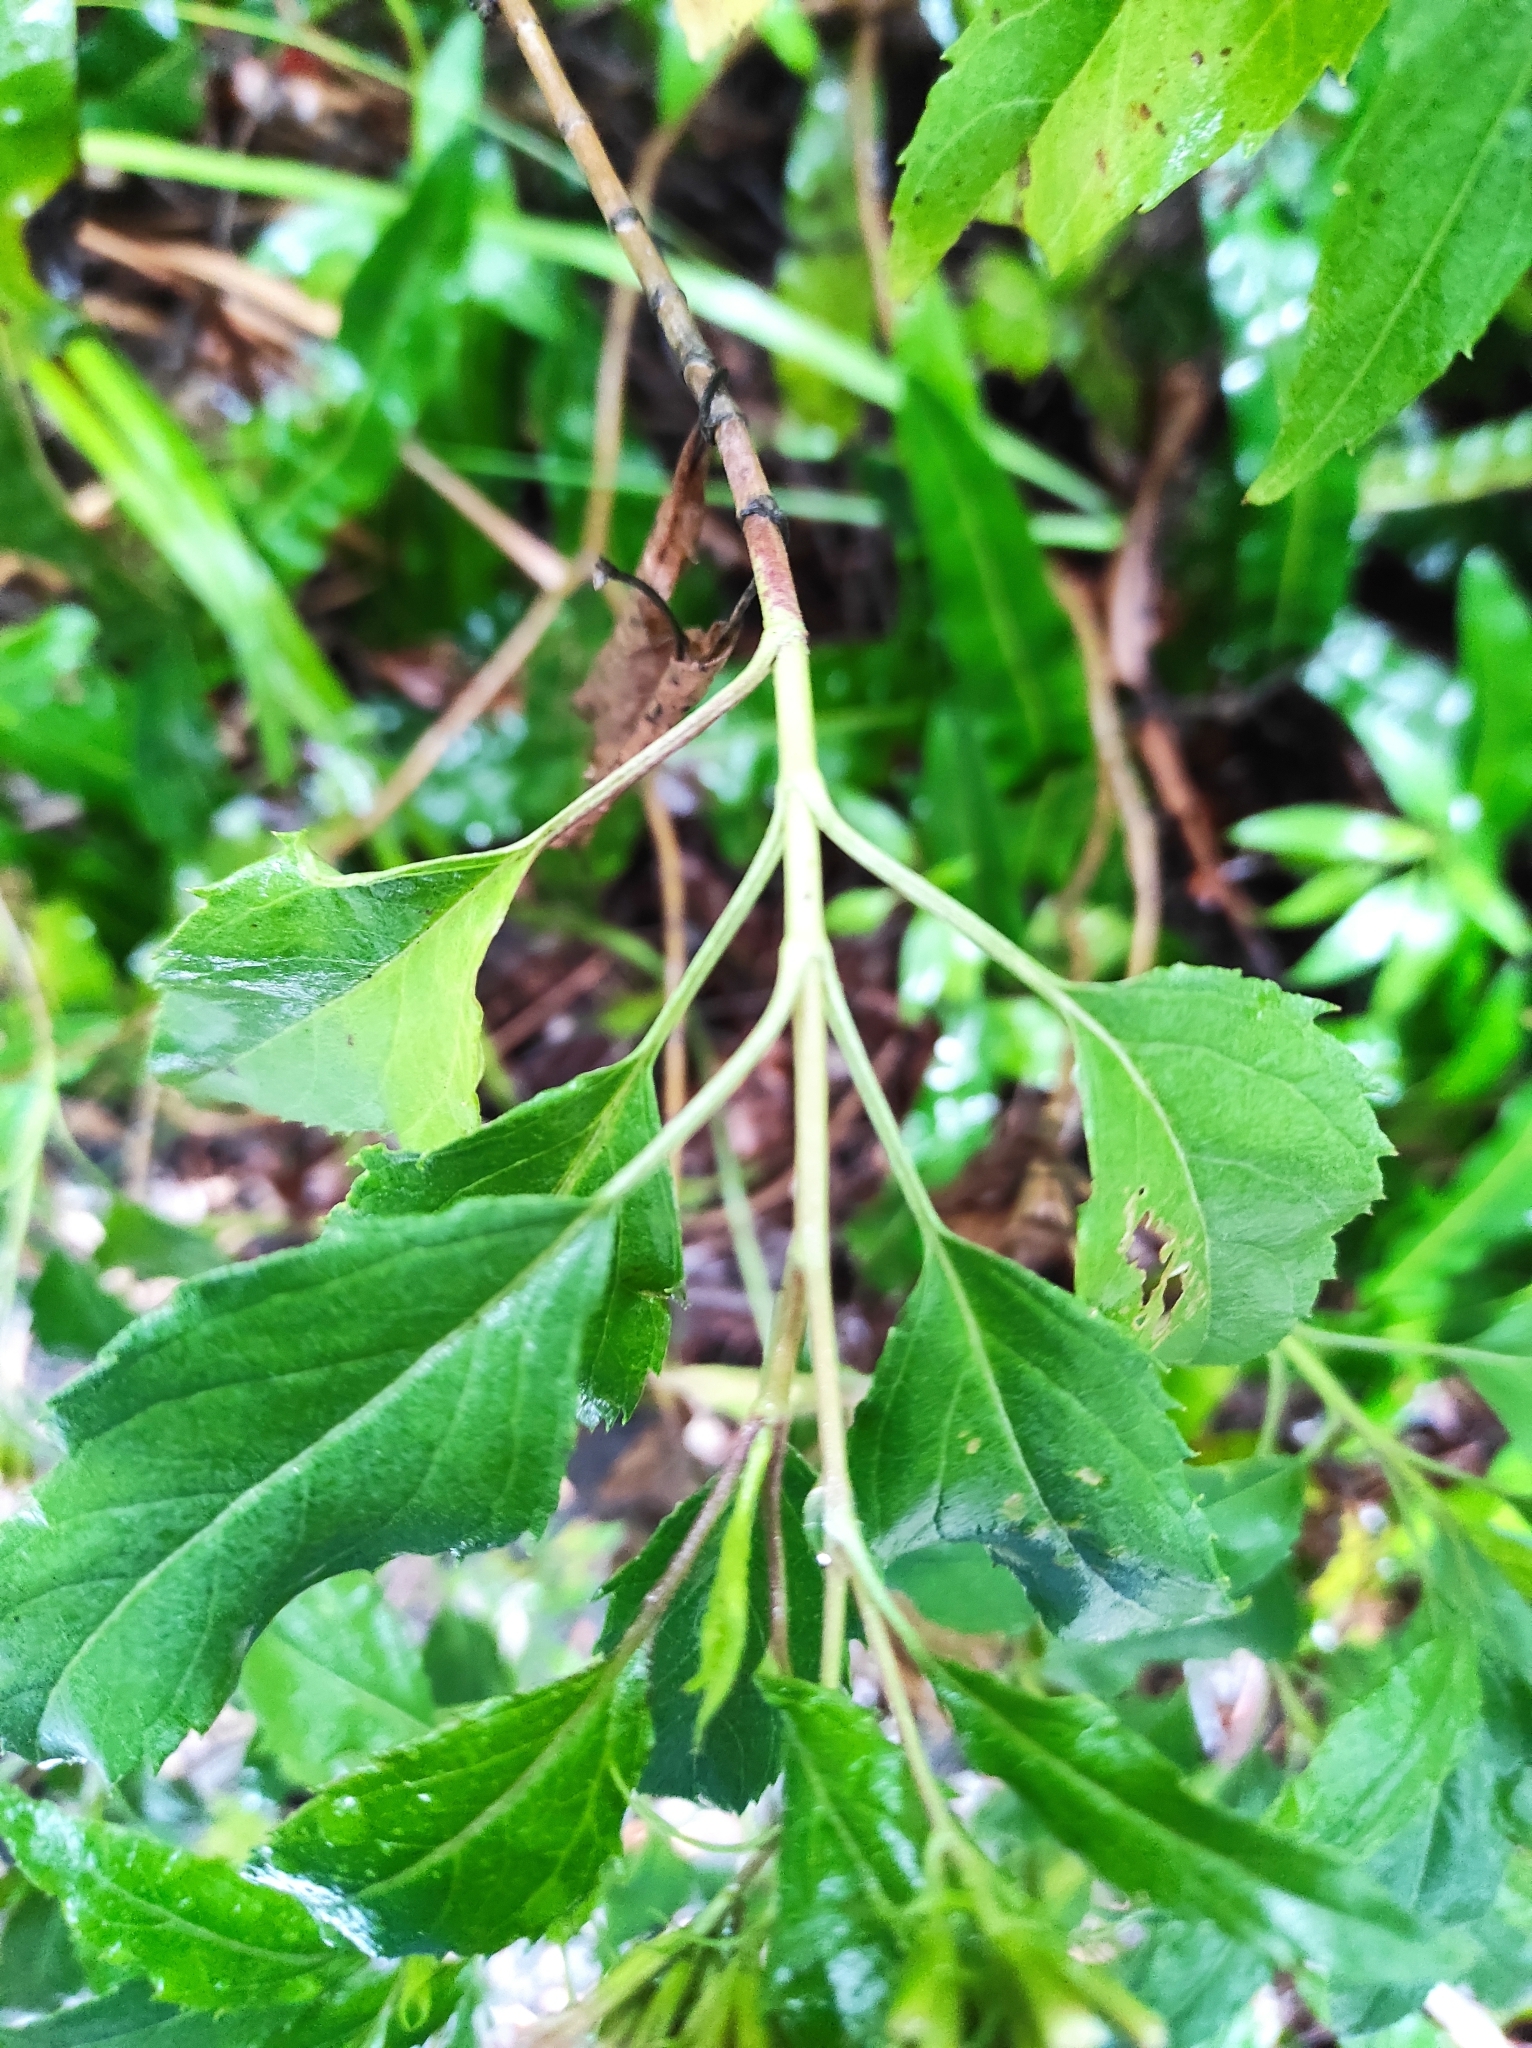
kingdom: Plantae
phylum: Tracheophyta
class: Magnoliopsida
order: Asterales
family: Asteraceae
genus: Stevia
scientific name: Stevia lucida
